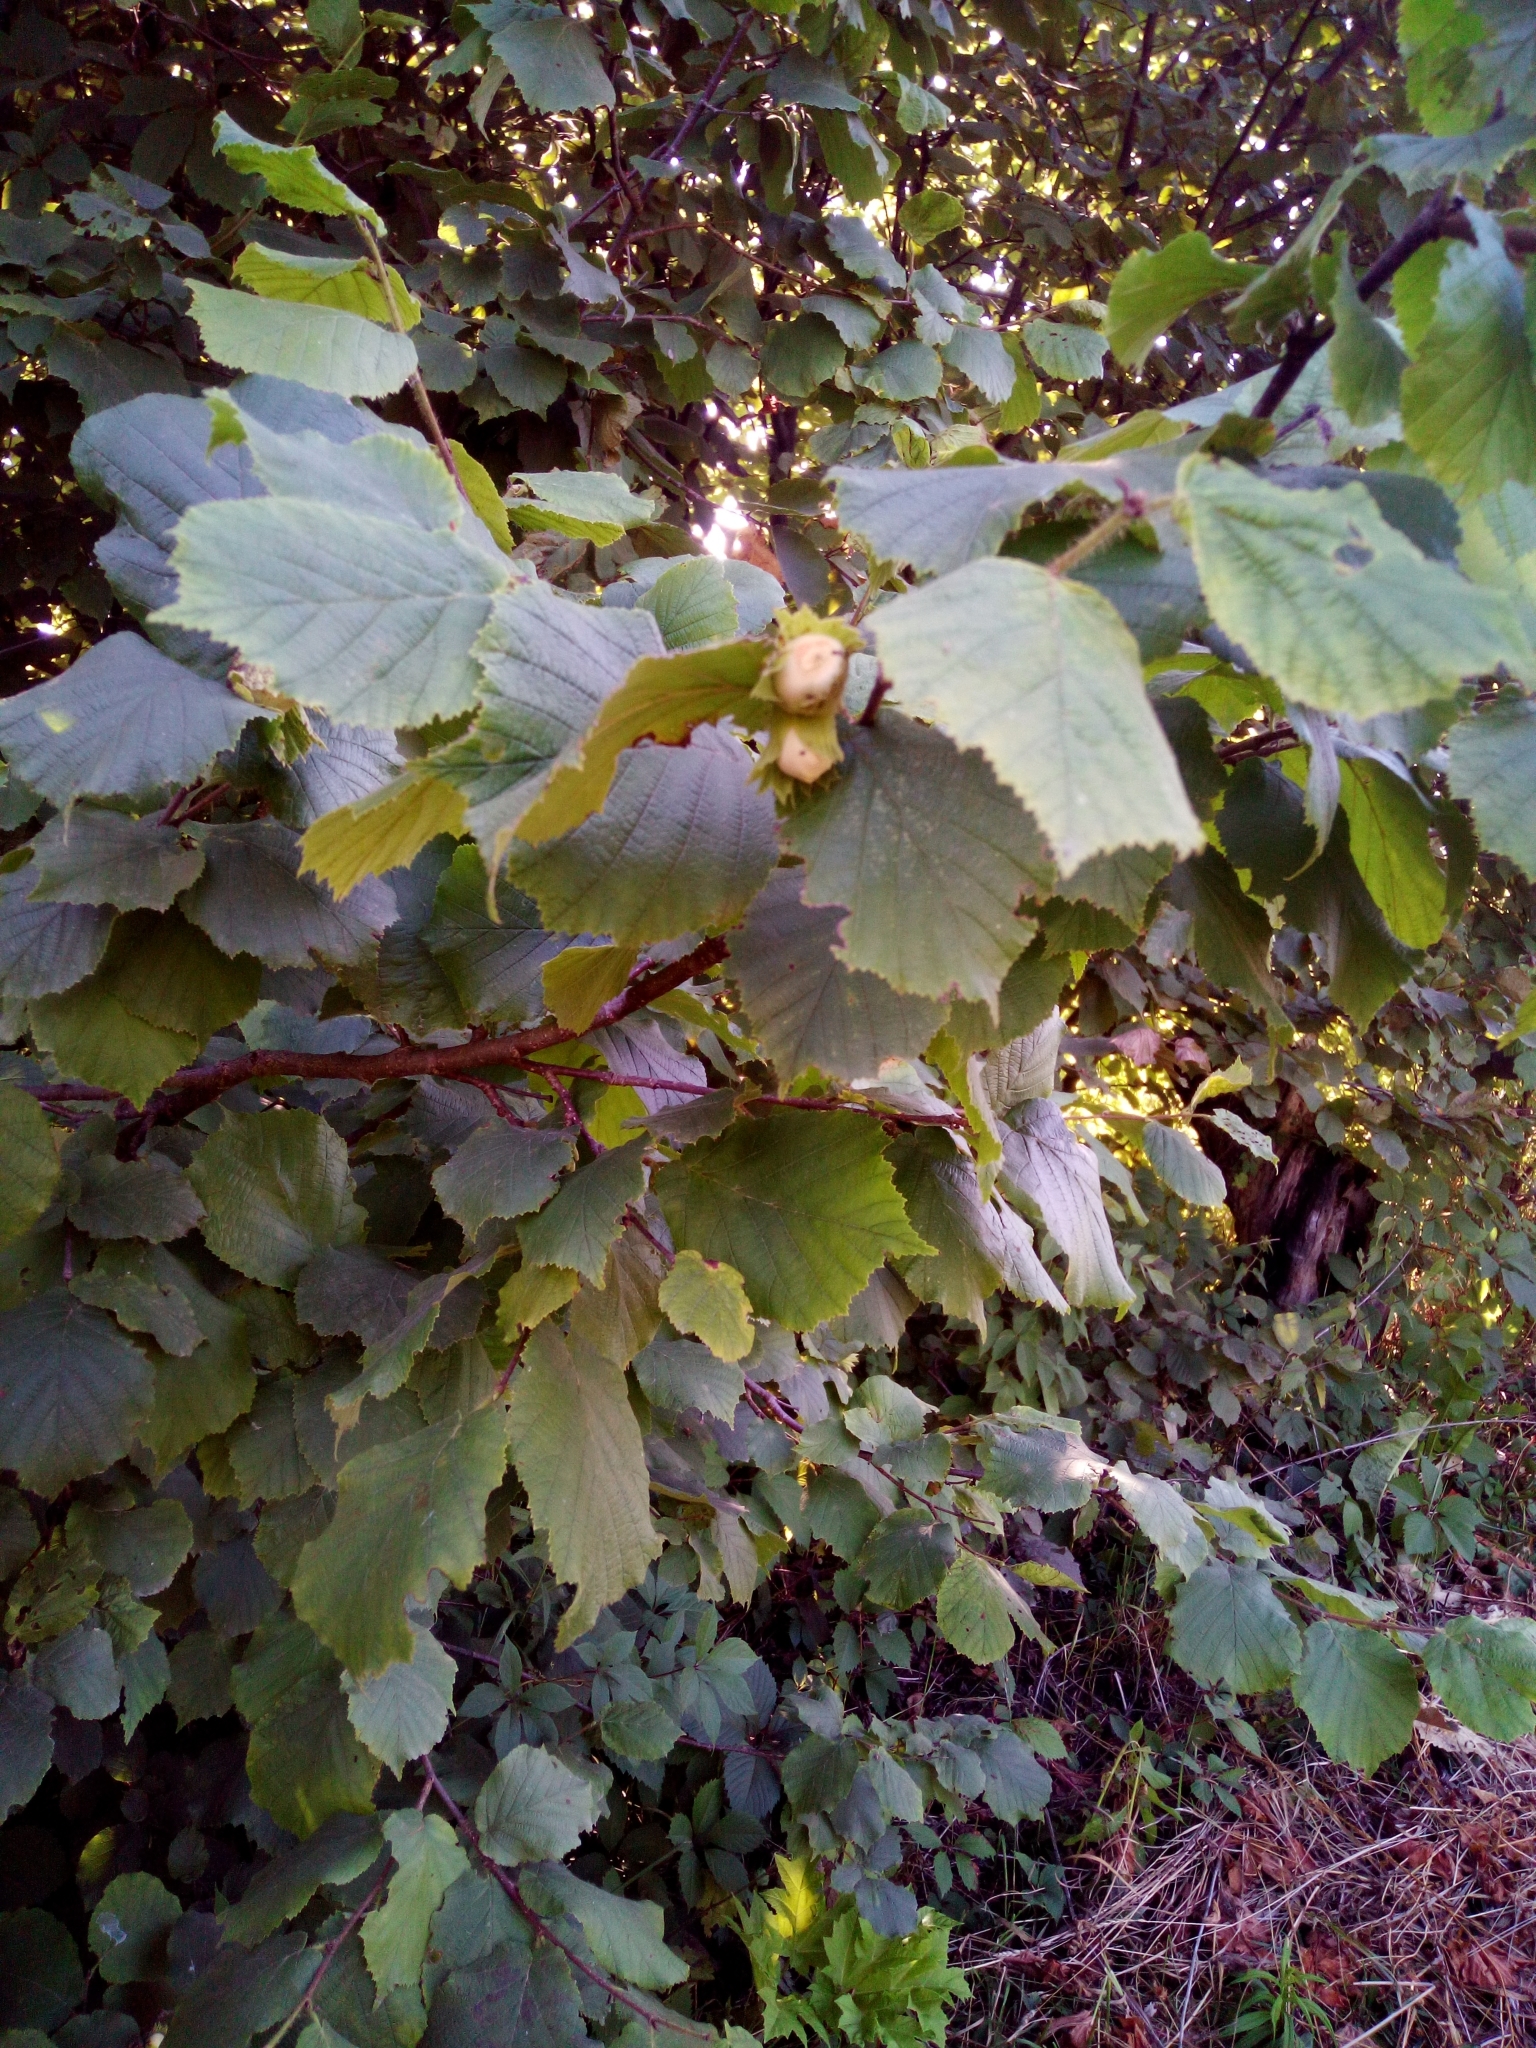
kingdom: Plantae
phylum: Tracheophyta
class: Magnoliopsida
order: Fagales
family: Betulaceae
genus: Corylus
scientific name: Corylus avellana
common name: European hazel
